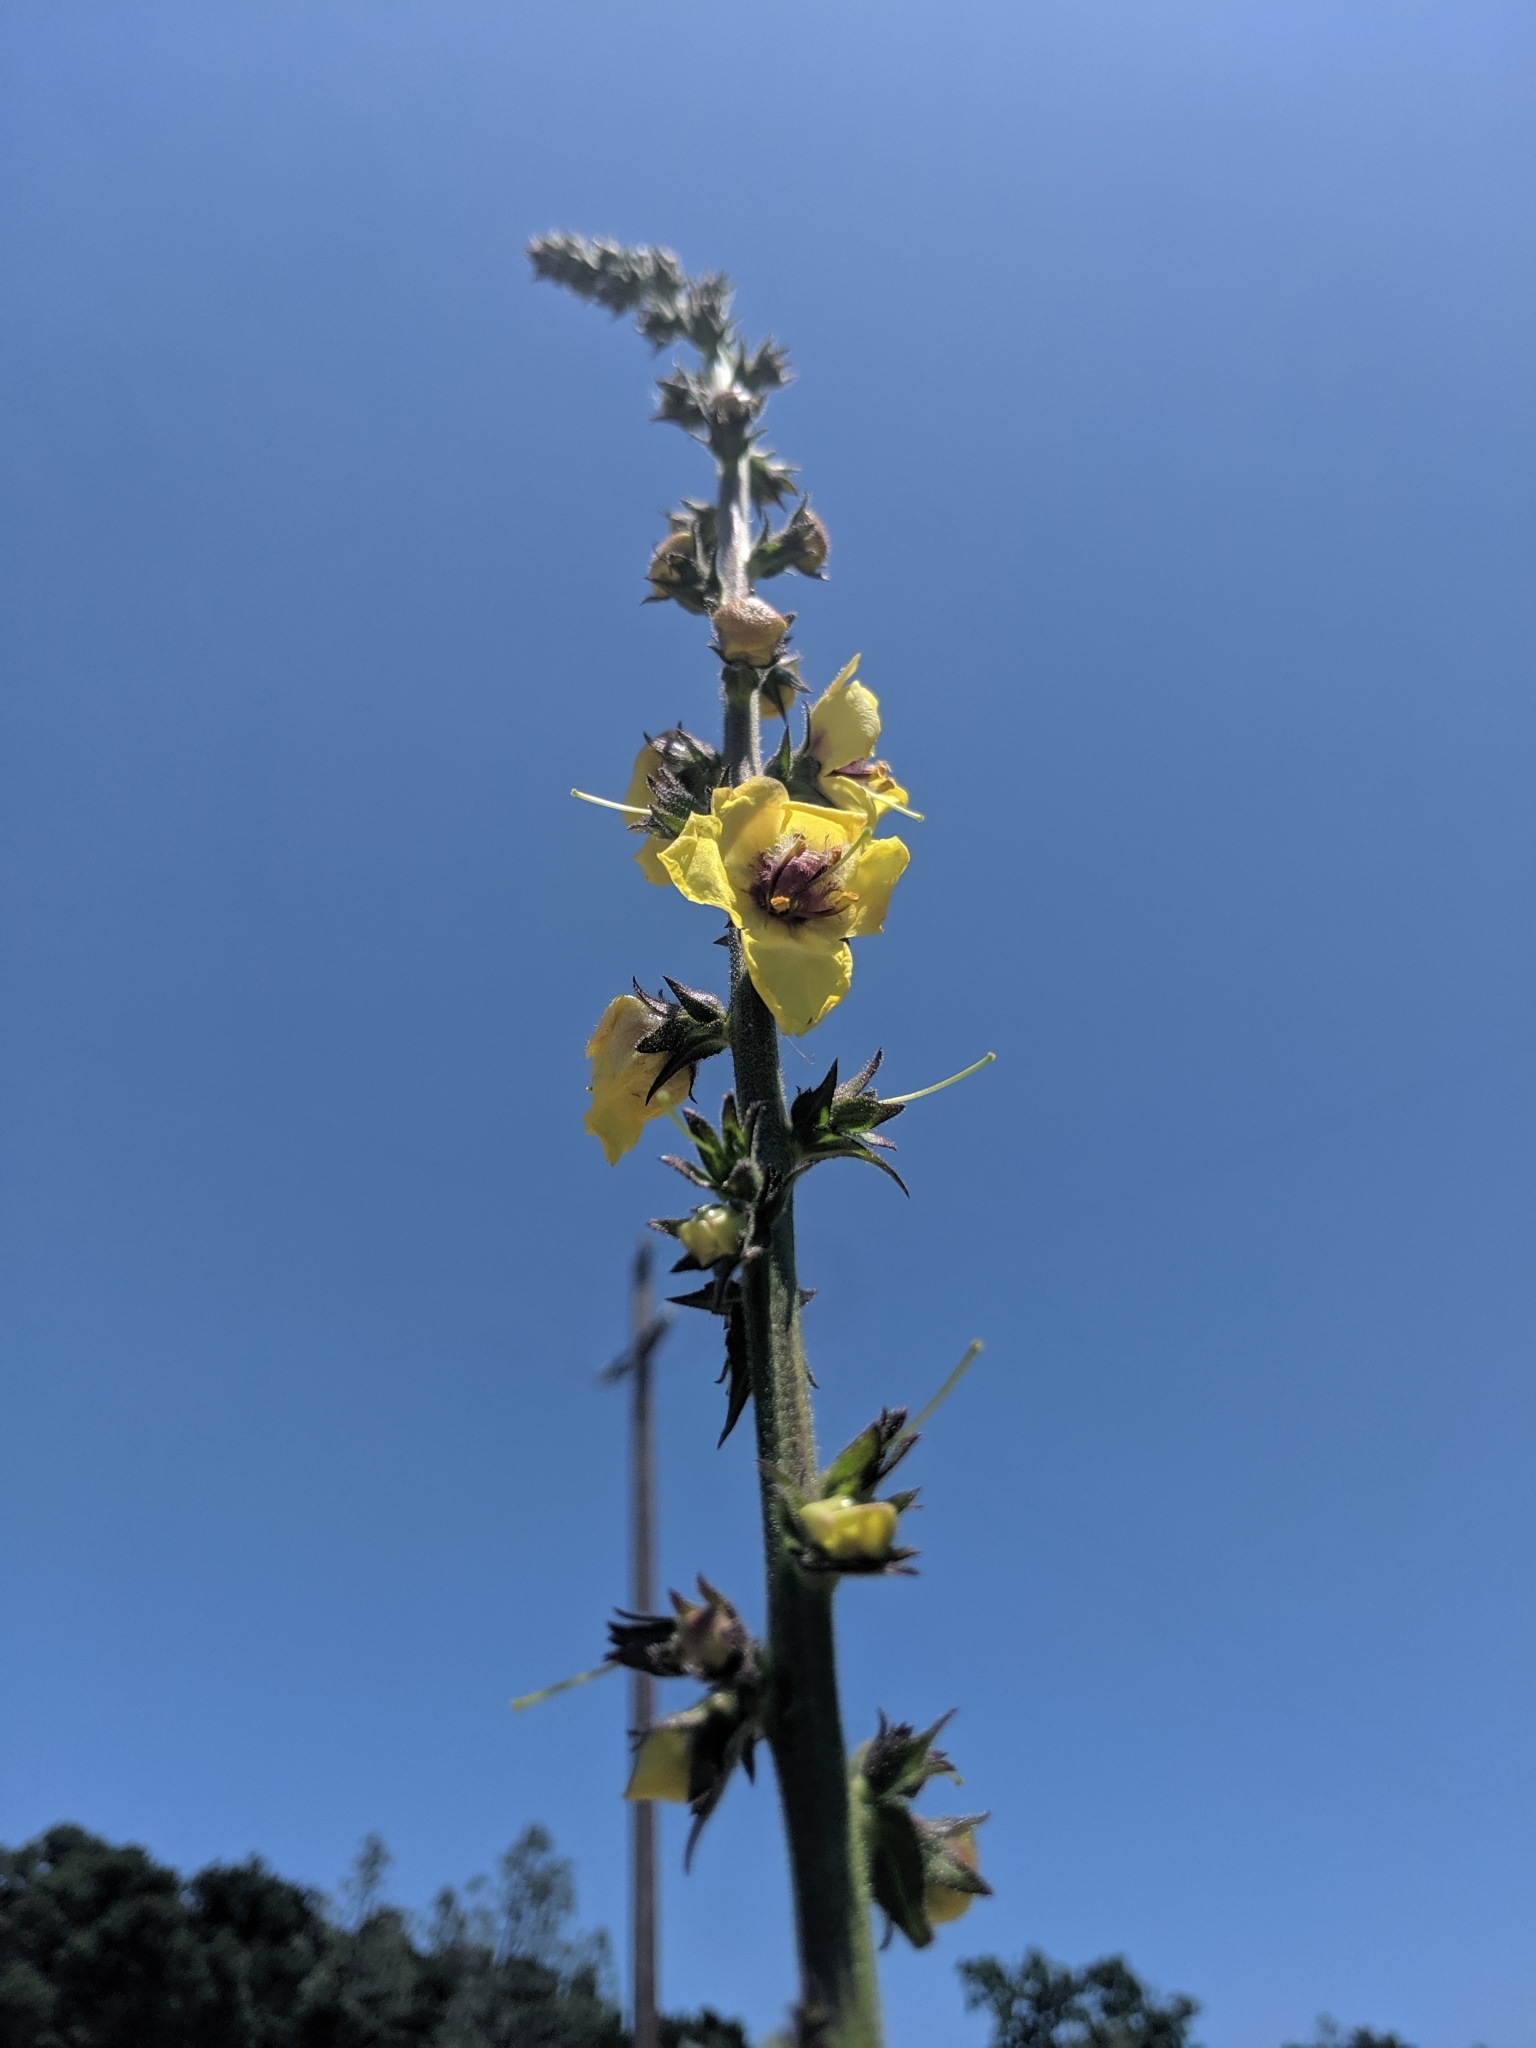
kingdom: Plantae
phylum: Tracheophyta
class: Magnoliopsida
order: Lamiales
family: Scrophulariaceae
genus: Verbascum
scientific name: Verbascum virgatum
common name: Twiggy mullein
